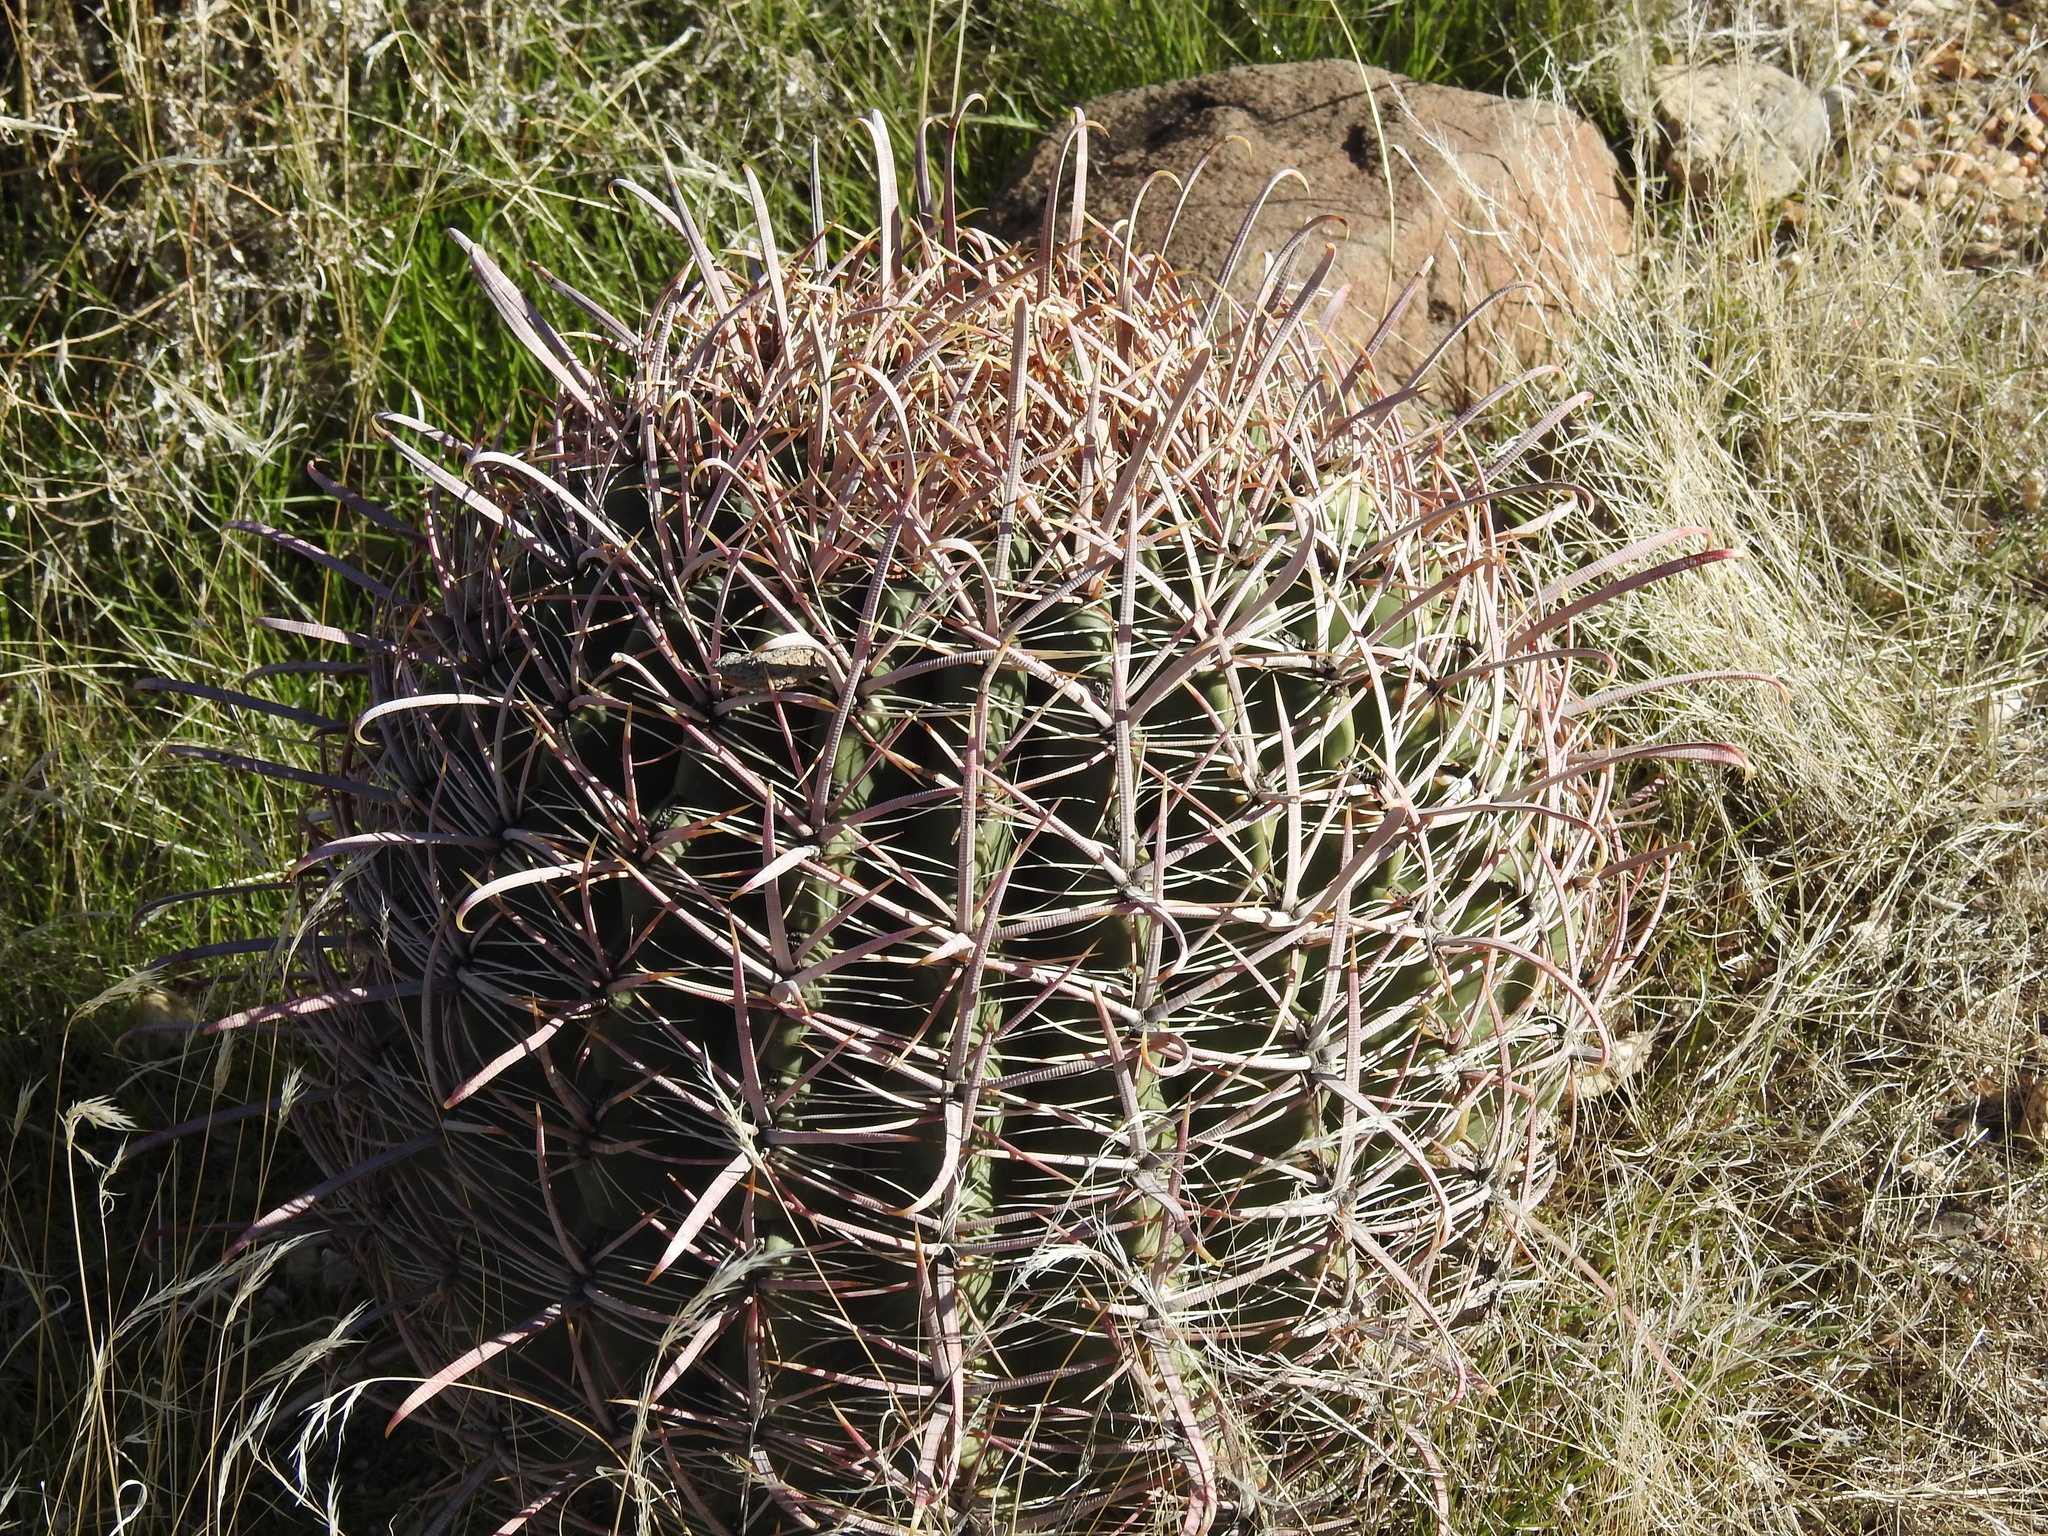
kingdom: Plantae
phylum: Tracheophyta
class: Magnoliopsida
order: Caryophyllales
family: Cactaceae
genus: Ferocactus
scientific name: Ferocactus cylindraceus
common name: California barrel cactus
